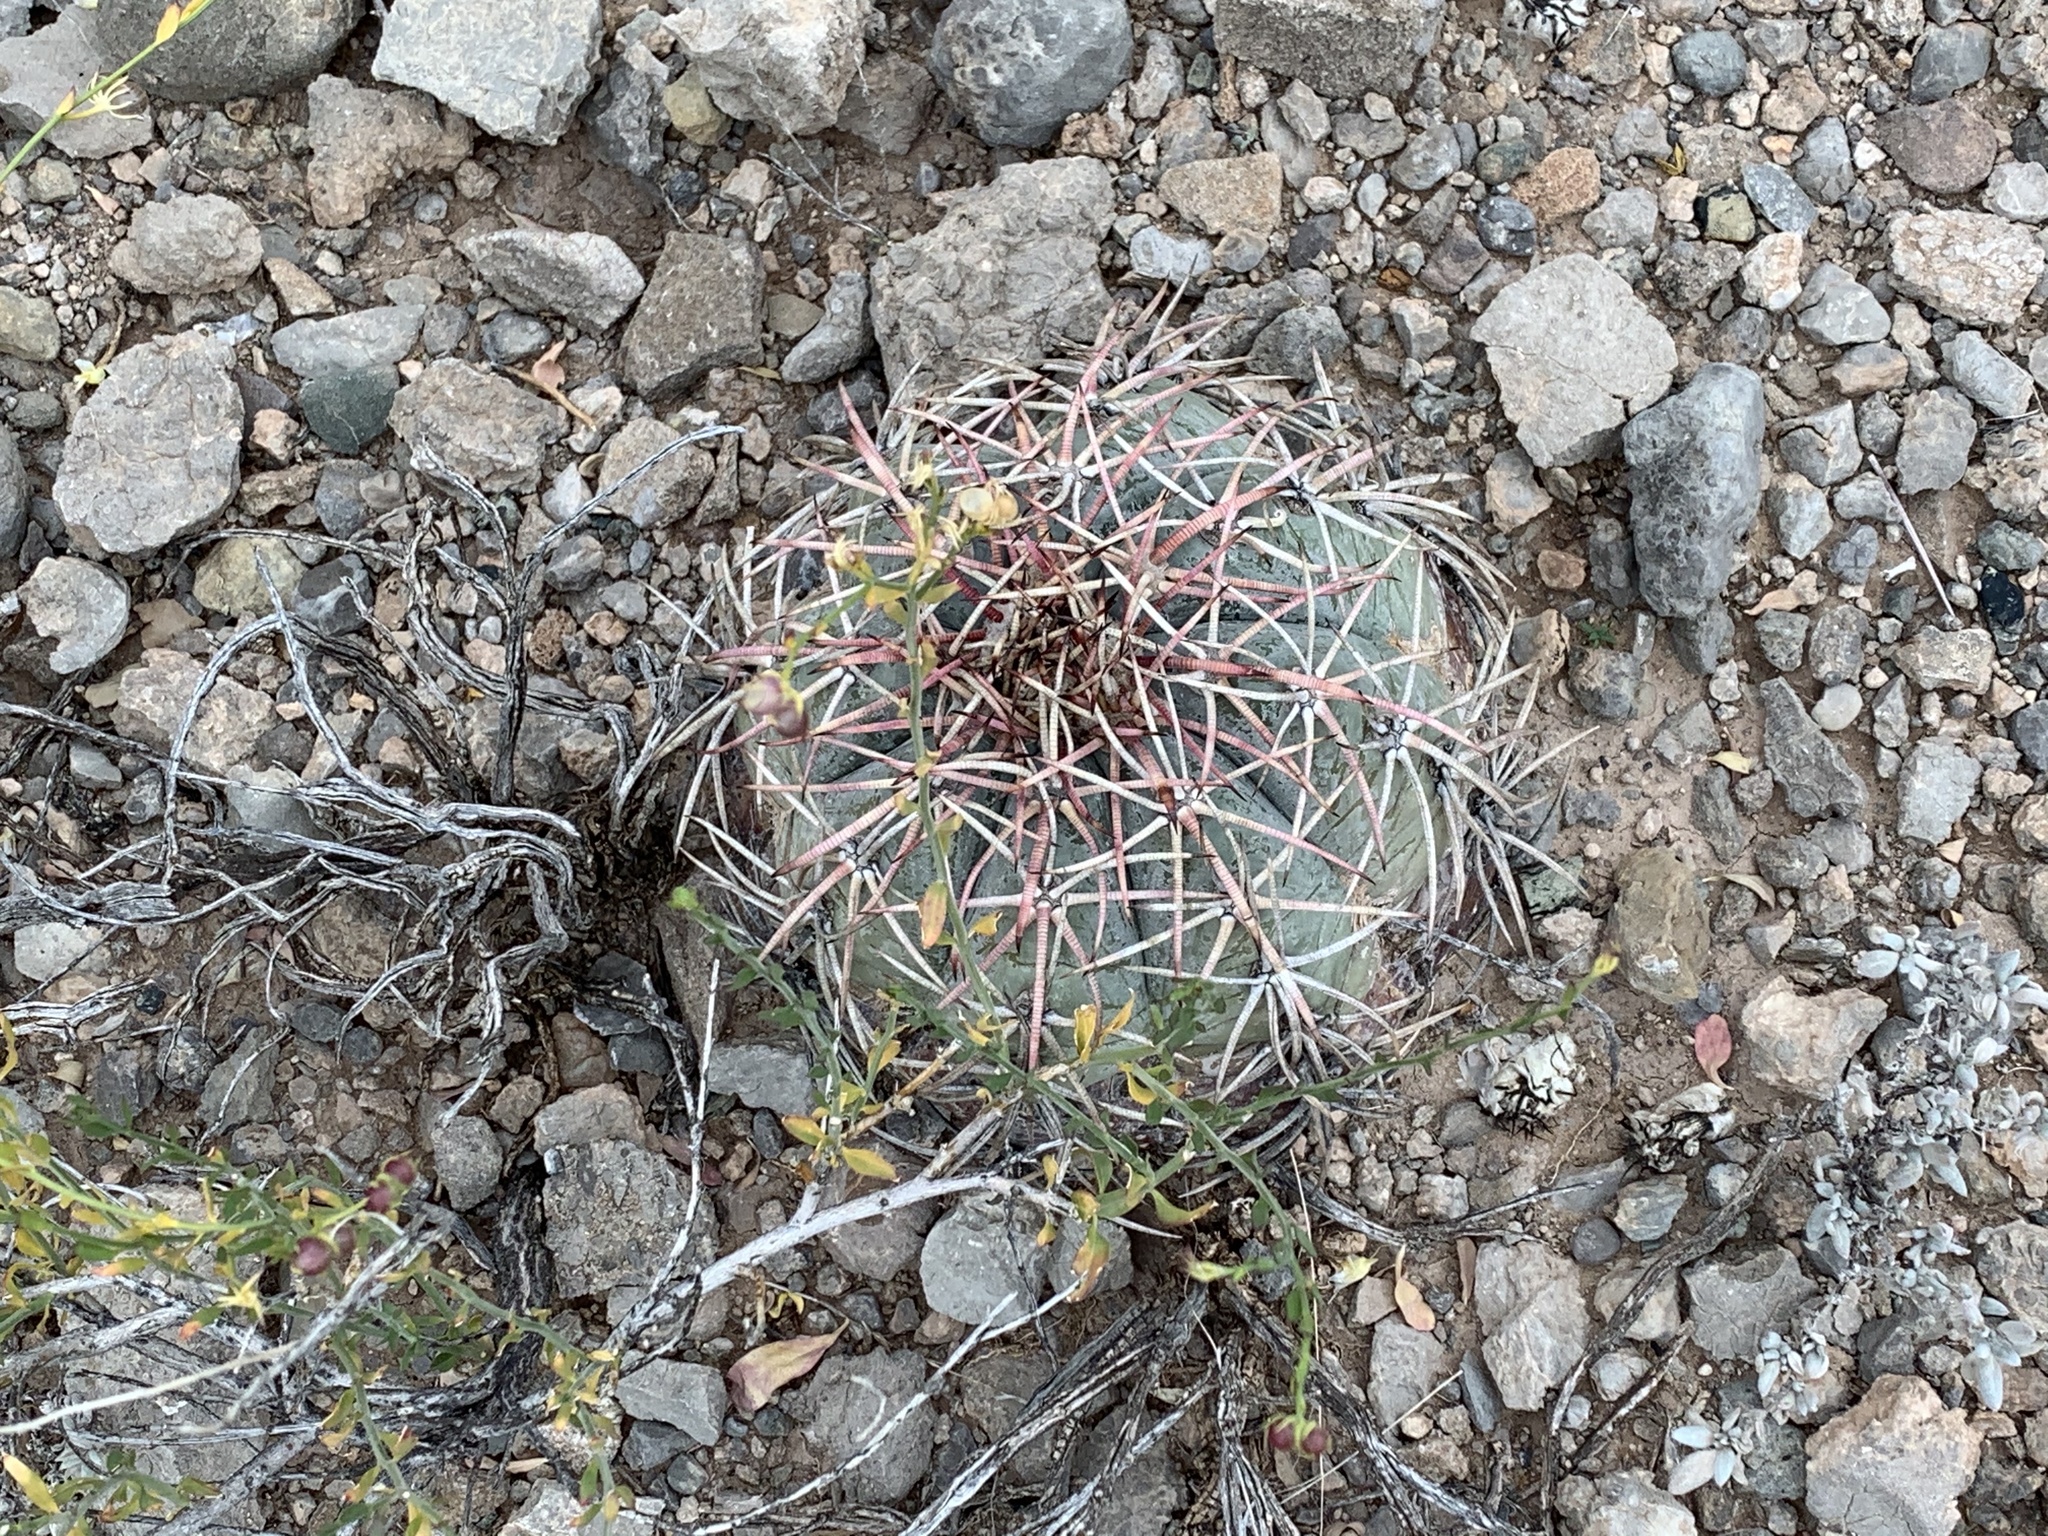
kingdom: Plantae
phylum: Tracheophyta
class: Magnoliopsida
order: Caryophyllales
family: Cactaceae
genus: Echinocactus
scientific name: Echinocactus horizonthalonius
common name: Devilshead
